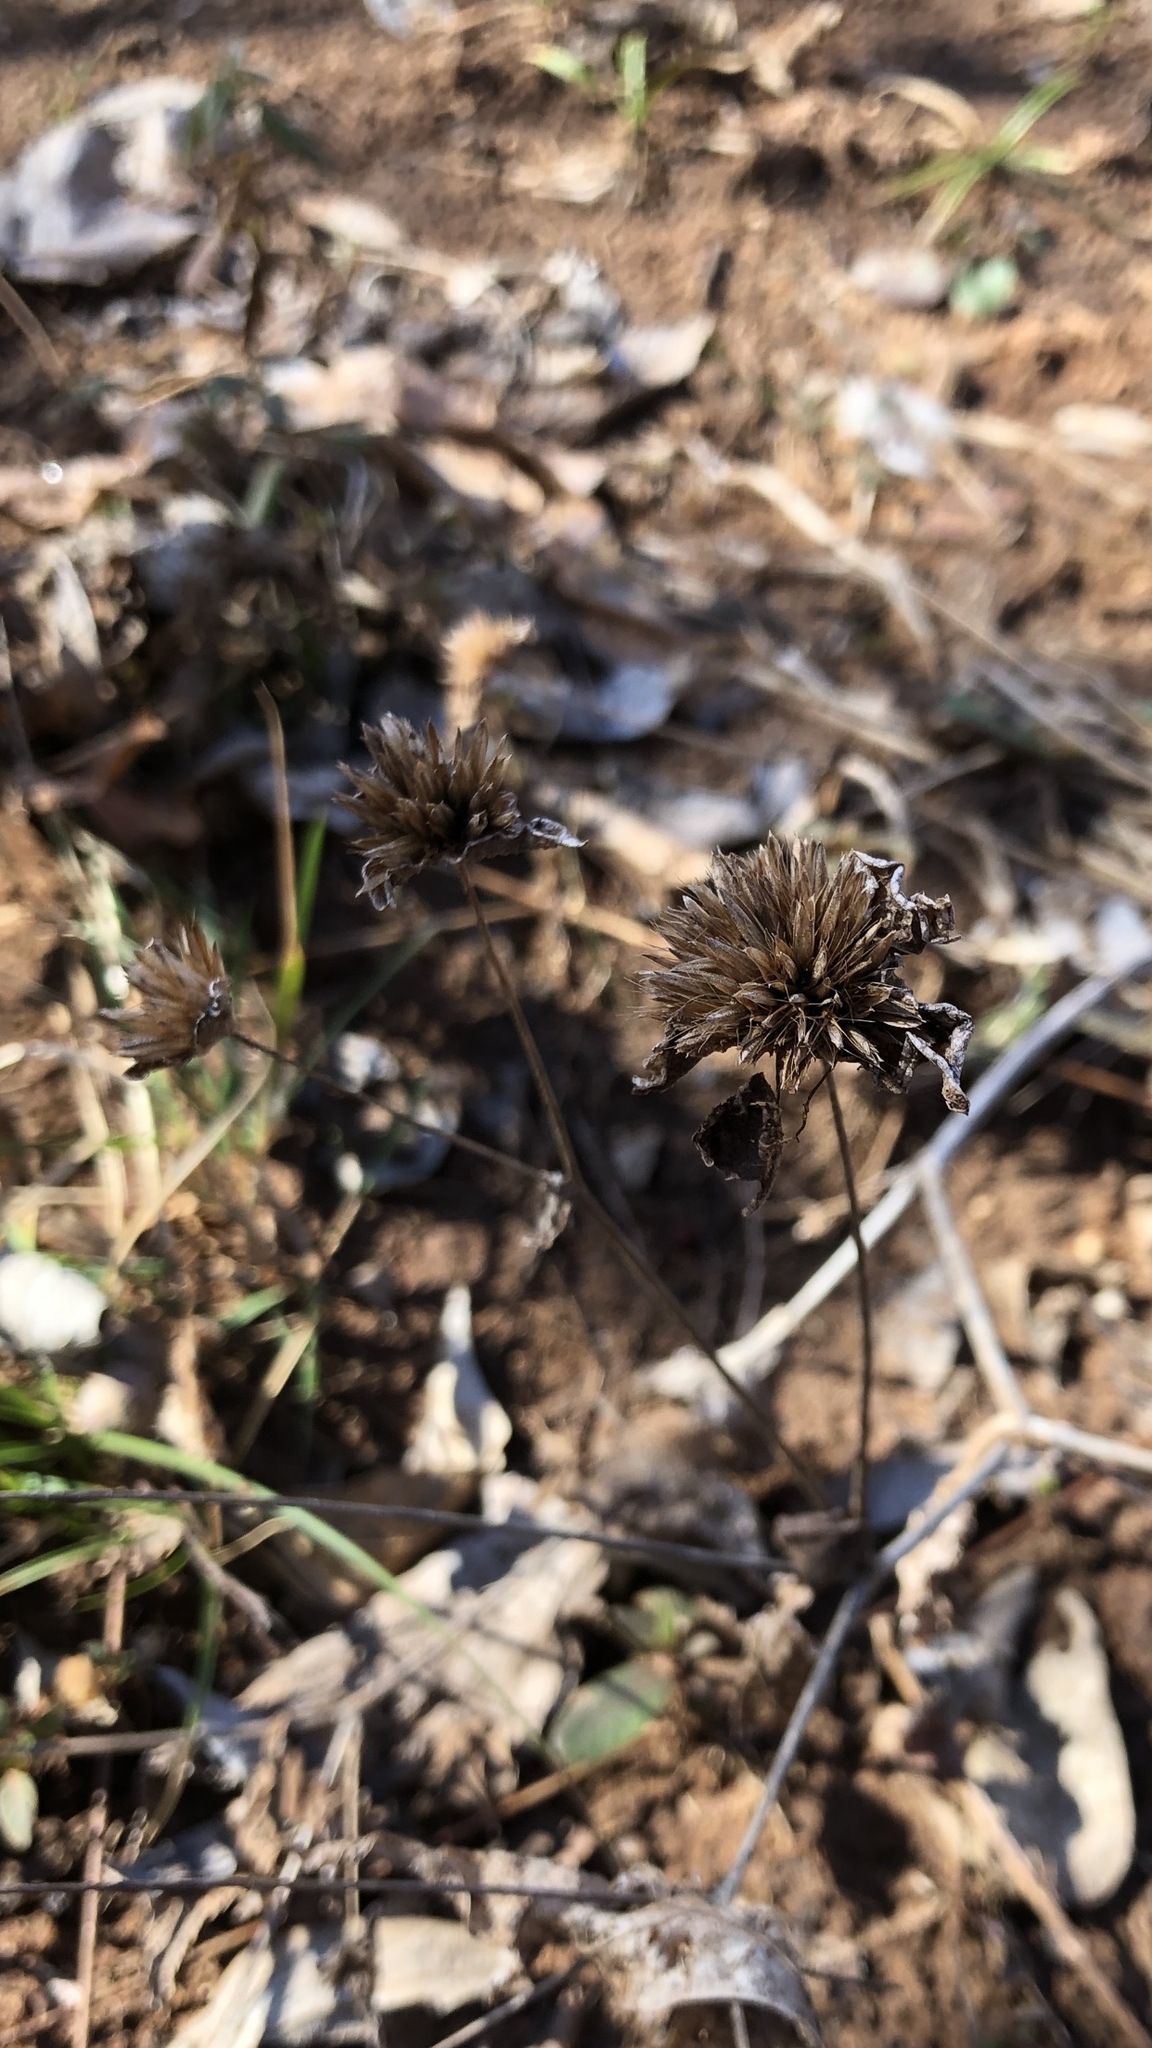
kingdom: Plantae
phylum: Tracheophyta
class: Magnoliopsida
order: Asterales
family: Asteraceae
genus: Elephantopus
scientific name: Elephantopus carolinianus
